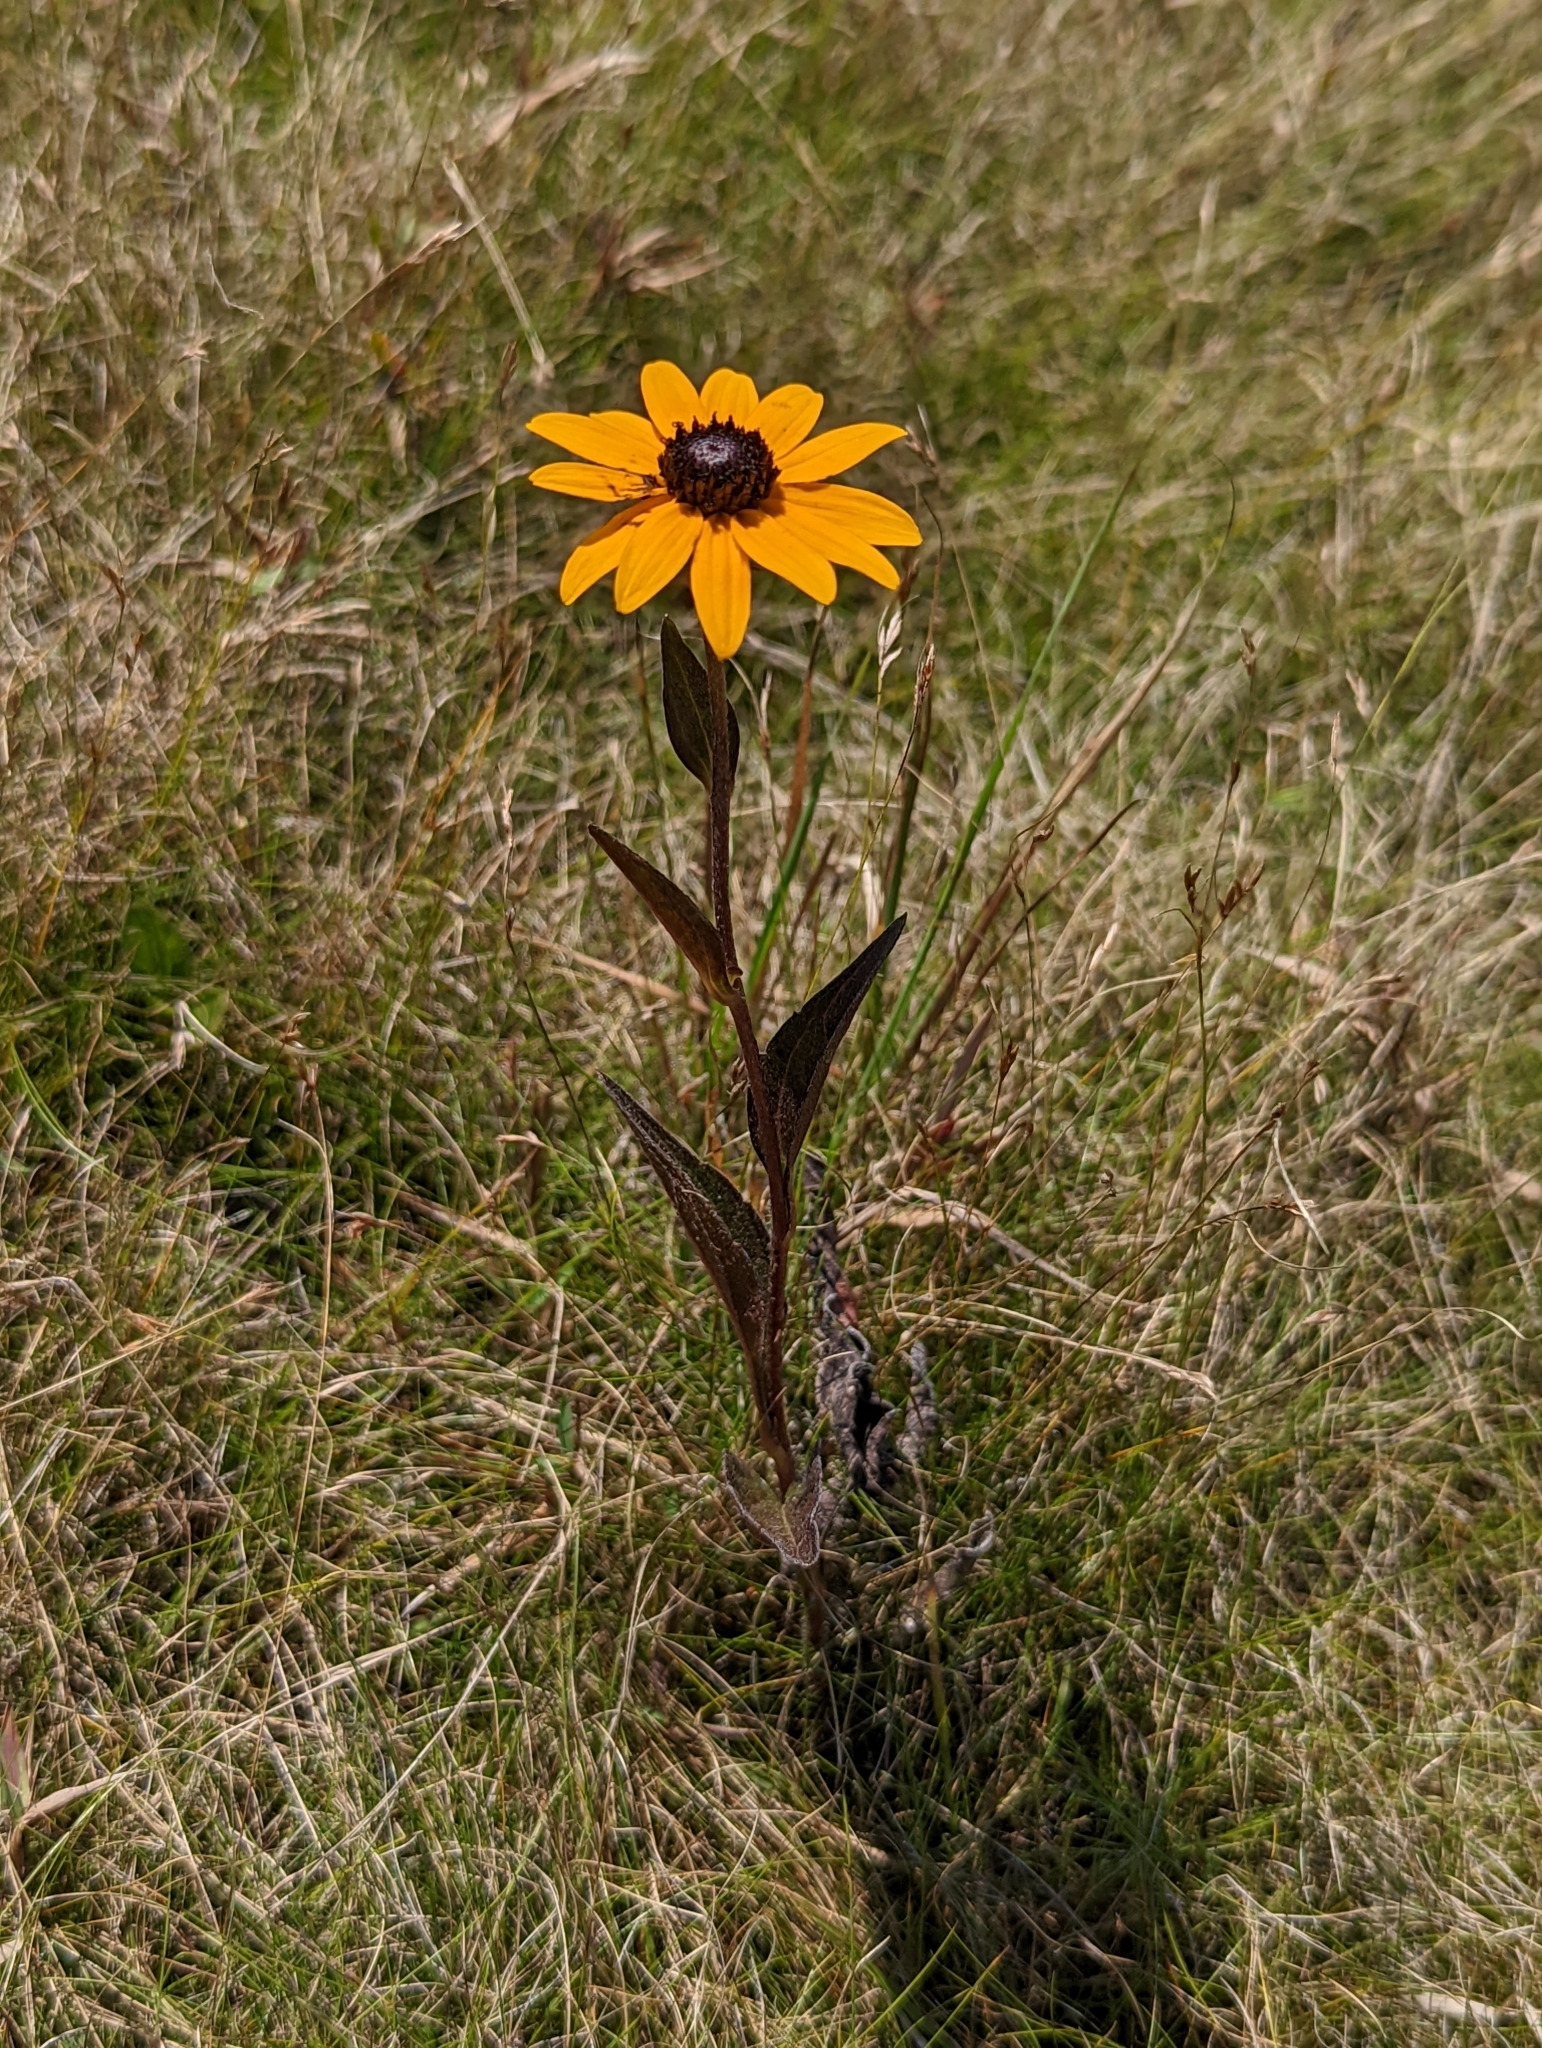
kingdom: Plantae
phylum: Tracheophyta
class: Magnoliopsida
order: Asterales
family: Asteraceae
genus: Rudbeckia
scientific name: Rudbeckia hirta
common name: Black-eyed-susan
